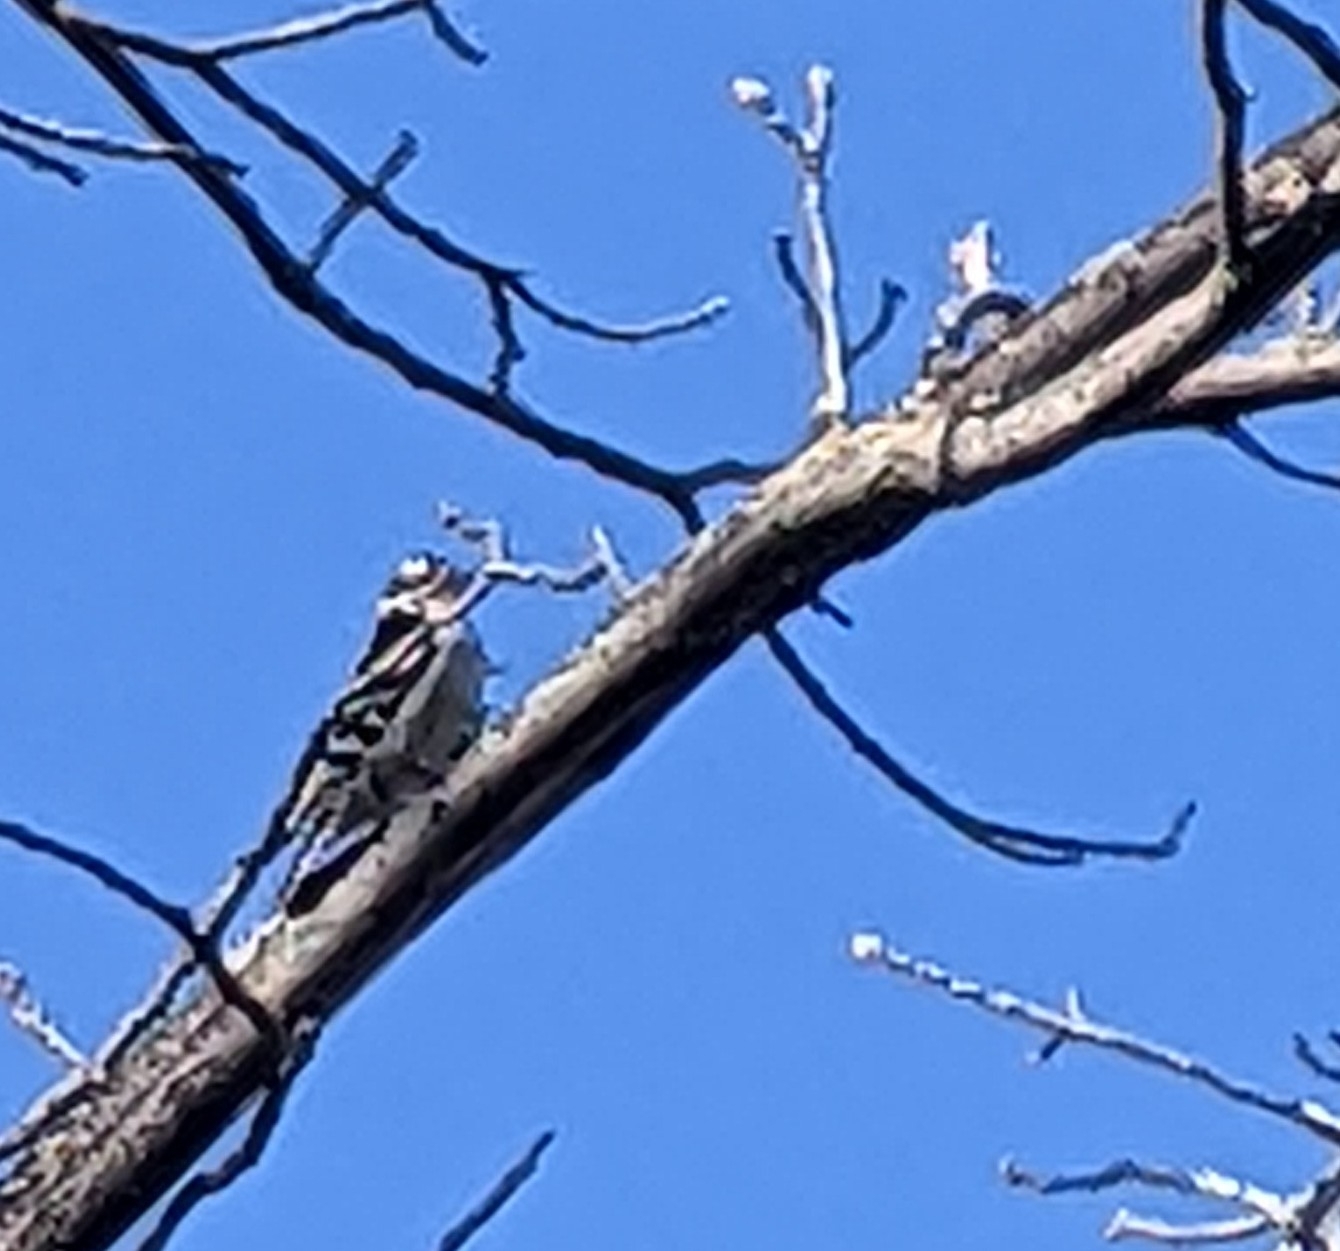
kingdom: Animalia
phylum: Chordata
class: Aves
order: Piciformes
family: Picidae
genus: Dryobates
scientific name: Dryobates pubescens
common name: Downy woodpecker
